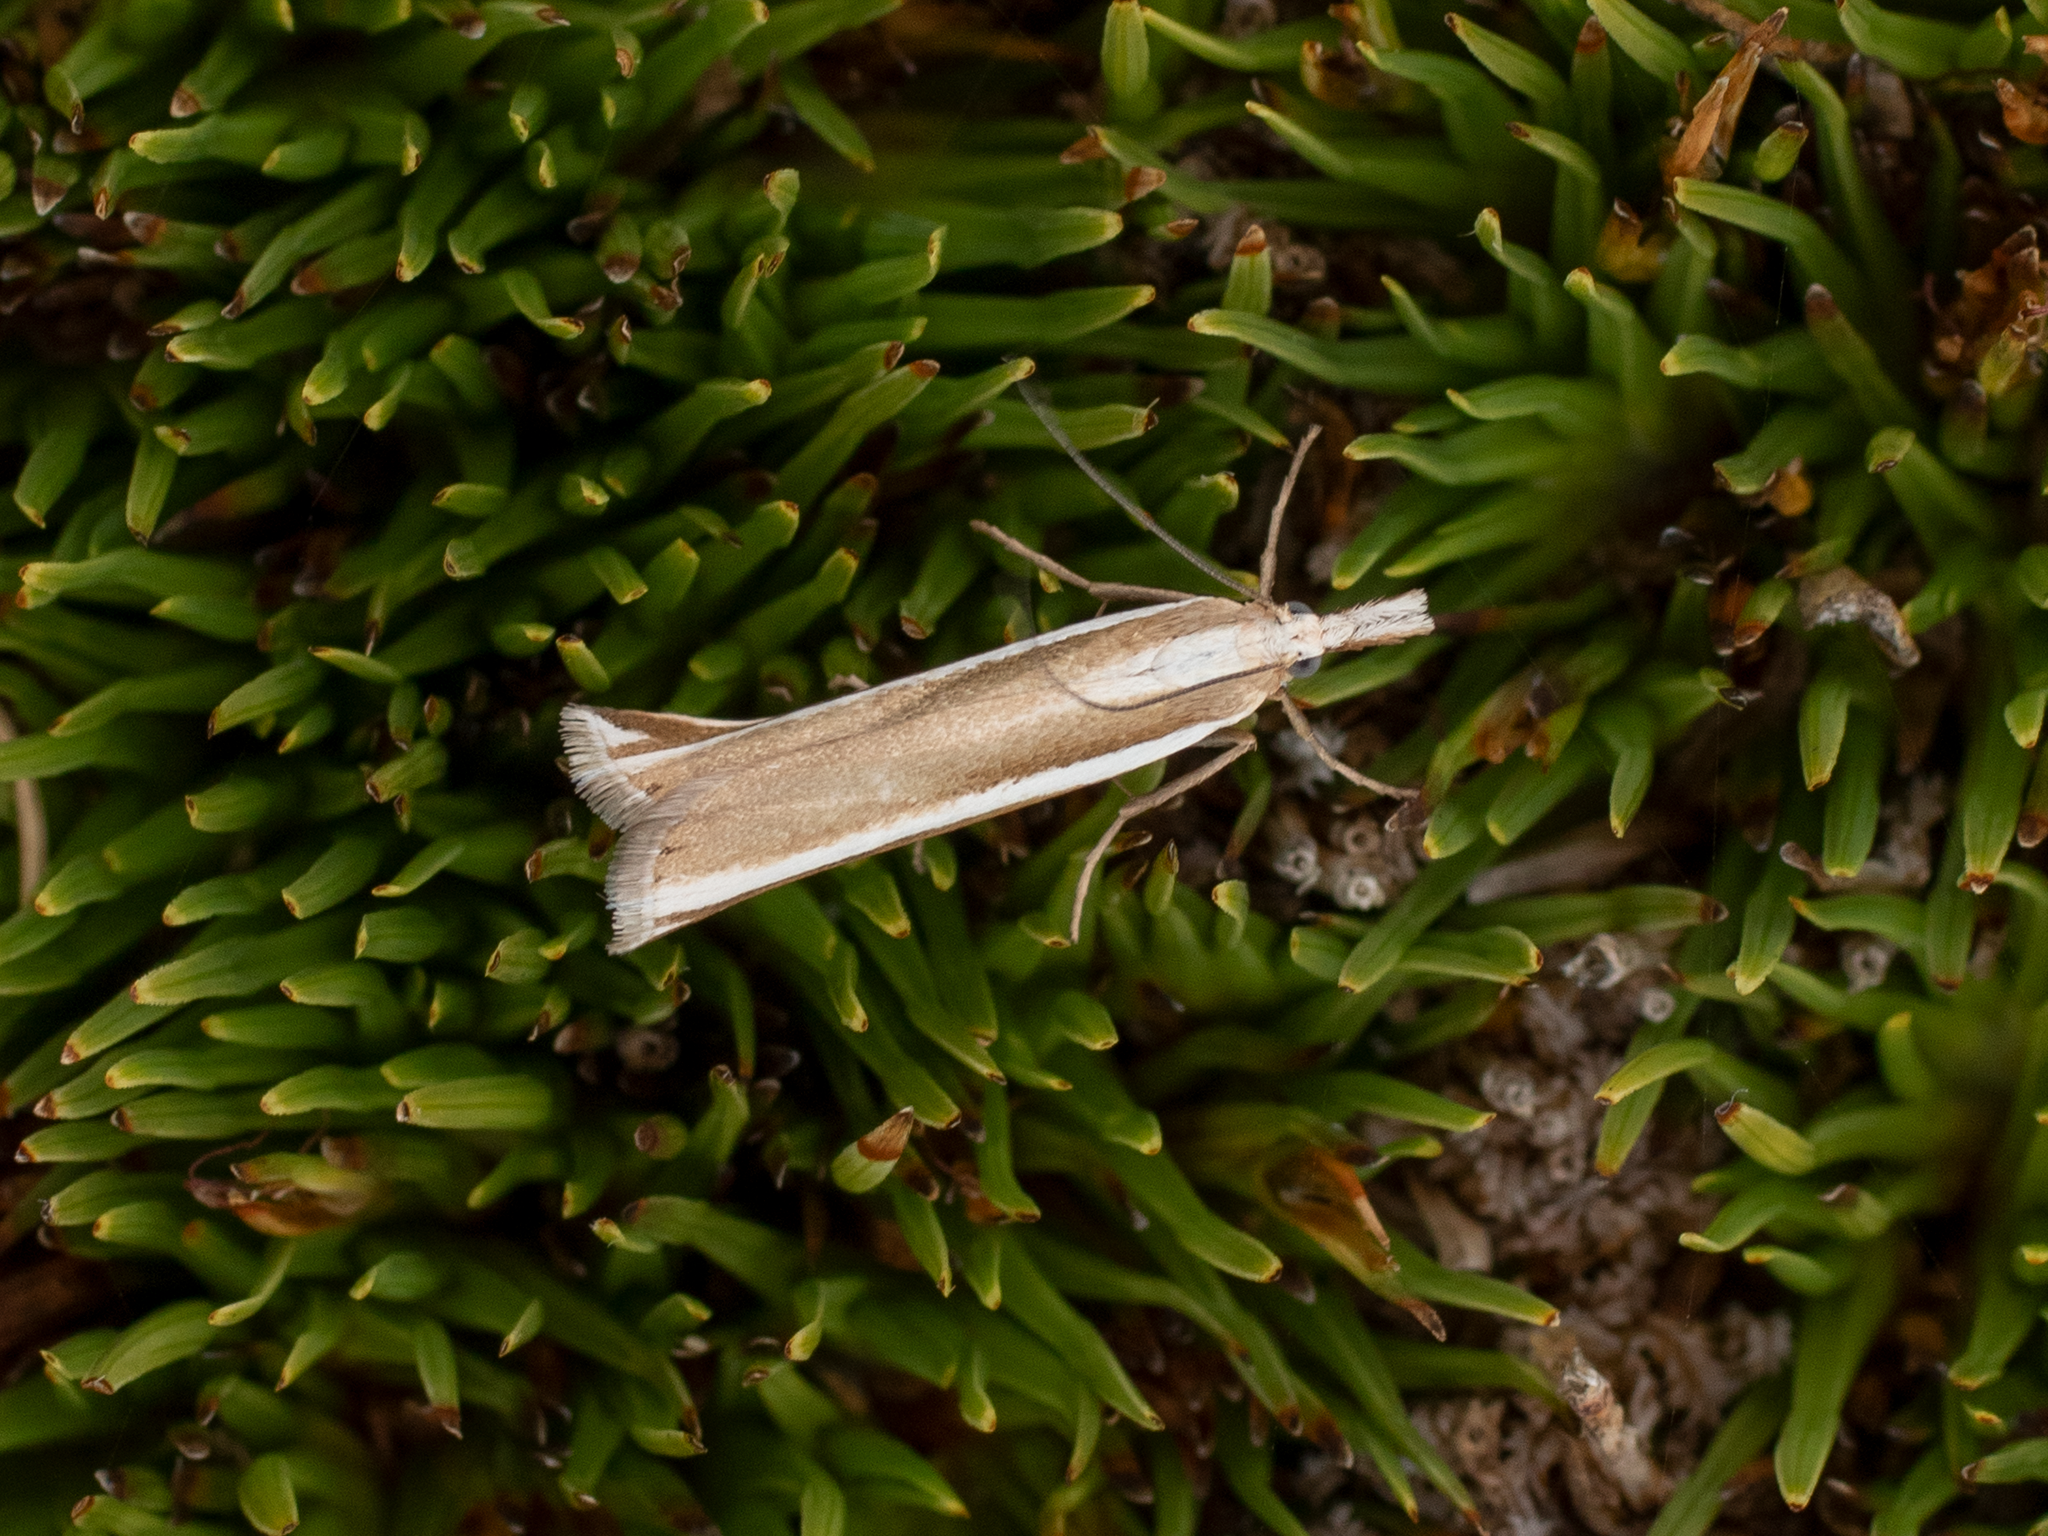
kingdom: Animalia
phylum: Arthropoda
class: Insecta
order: Lepidoptera
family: Crambidae
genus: Orocrambus
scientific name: Orocrambus apicellus
